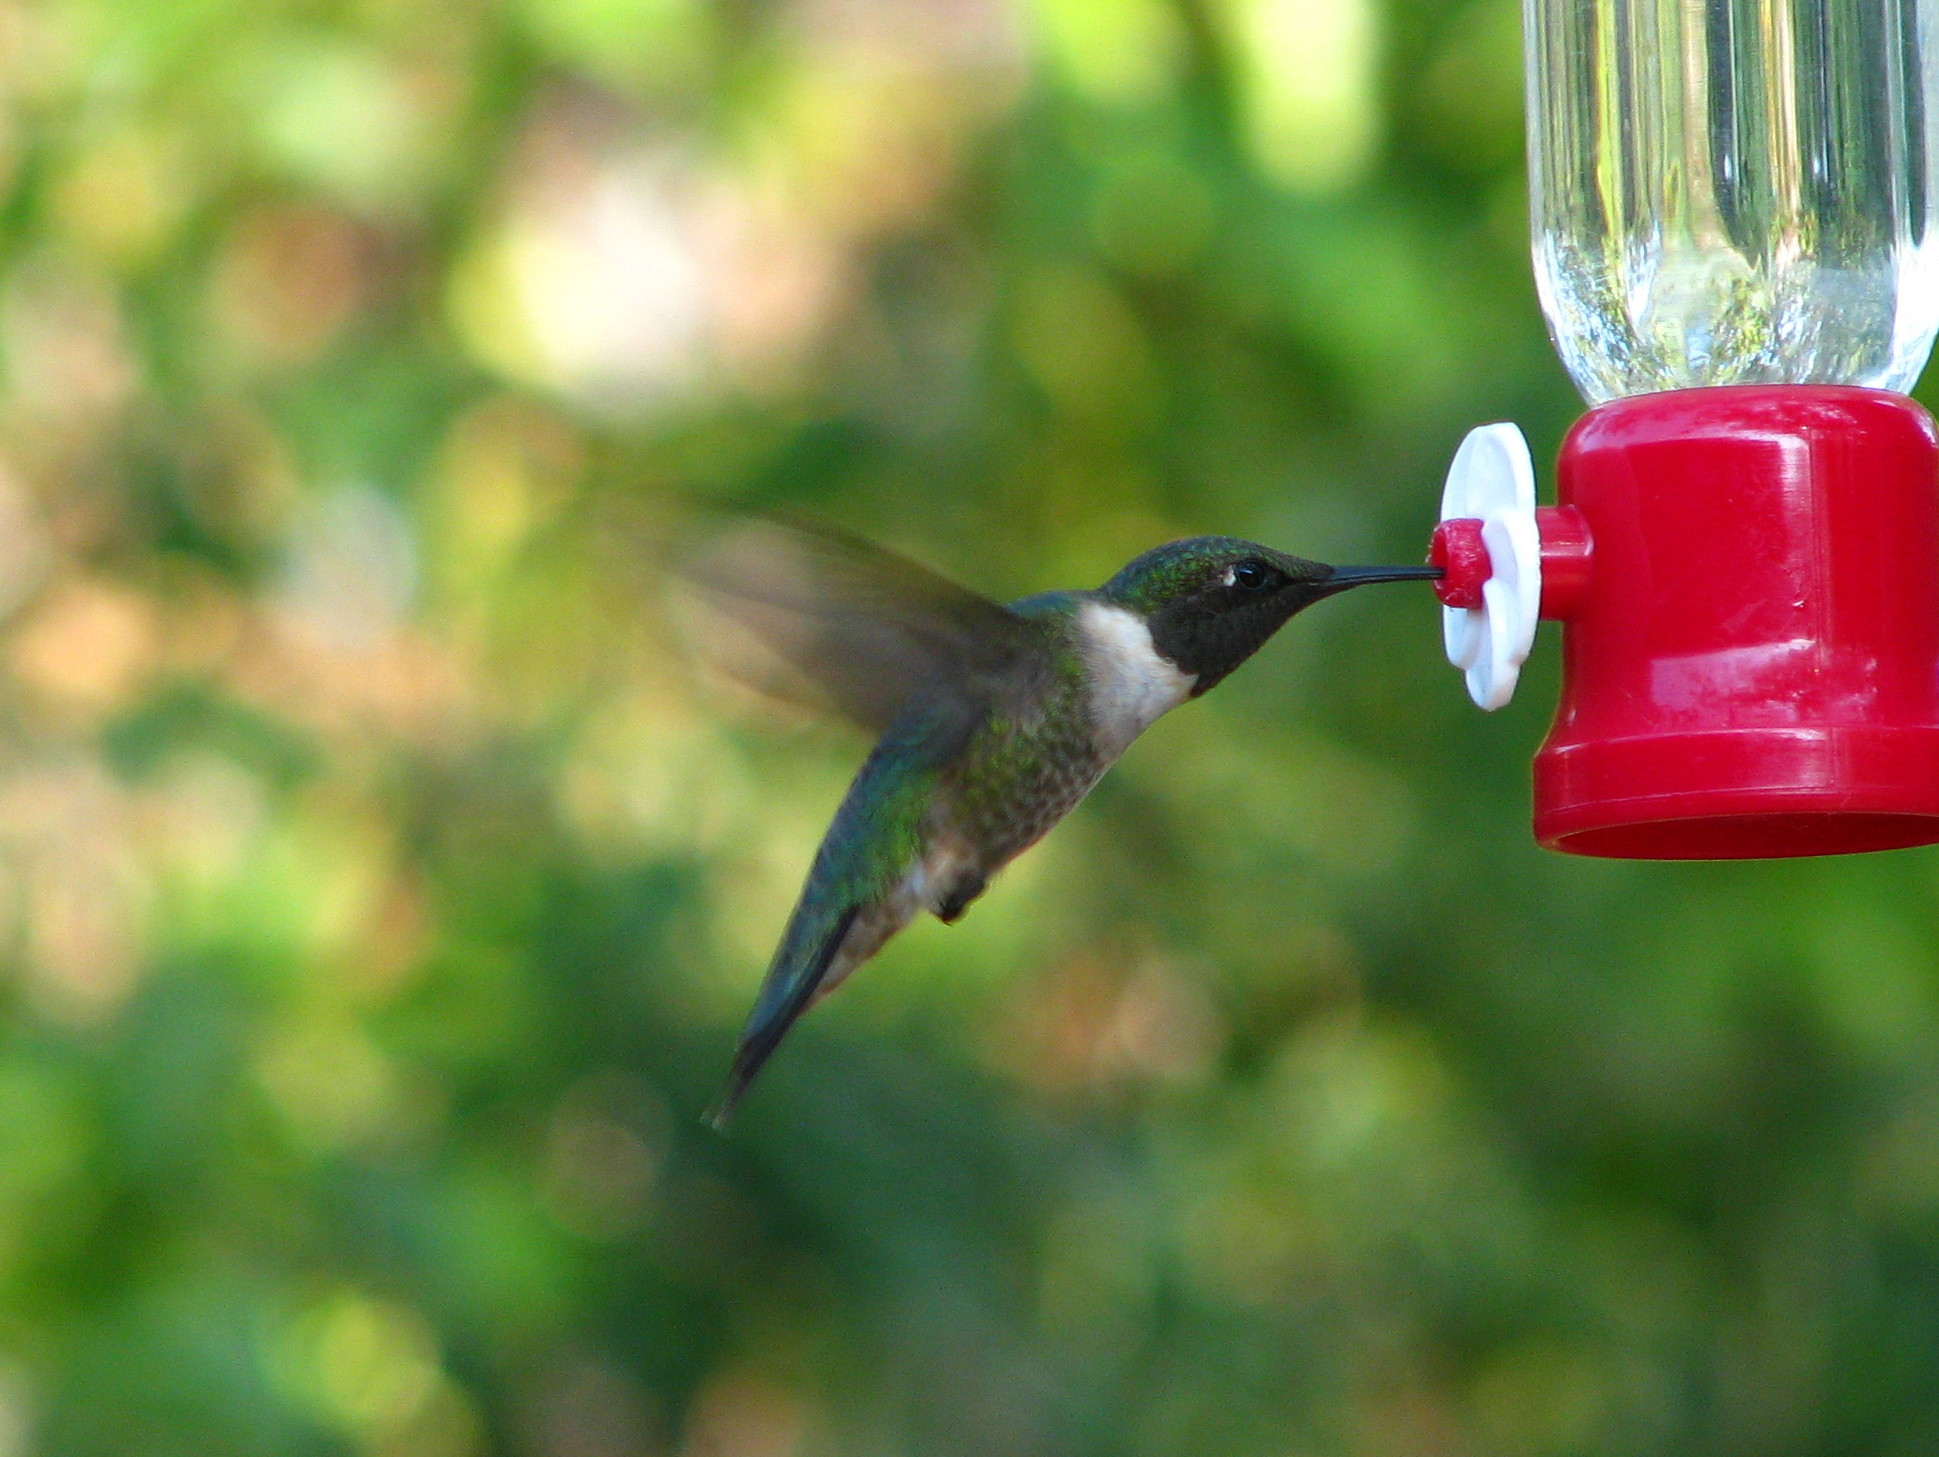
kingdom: Animalia
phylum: Chordata
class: Aves
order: Apodiformes
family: Trochilidae
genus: Archilochus
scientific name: Archilochus colubris
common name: Ruby-throated hummingbird
